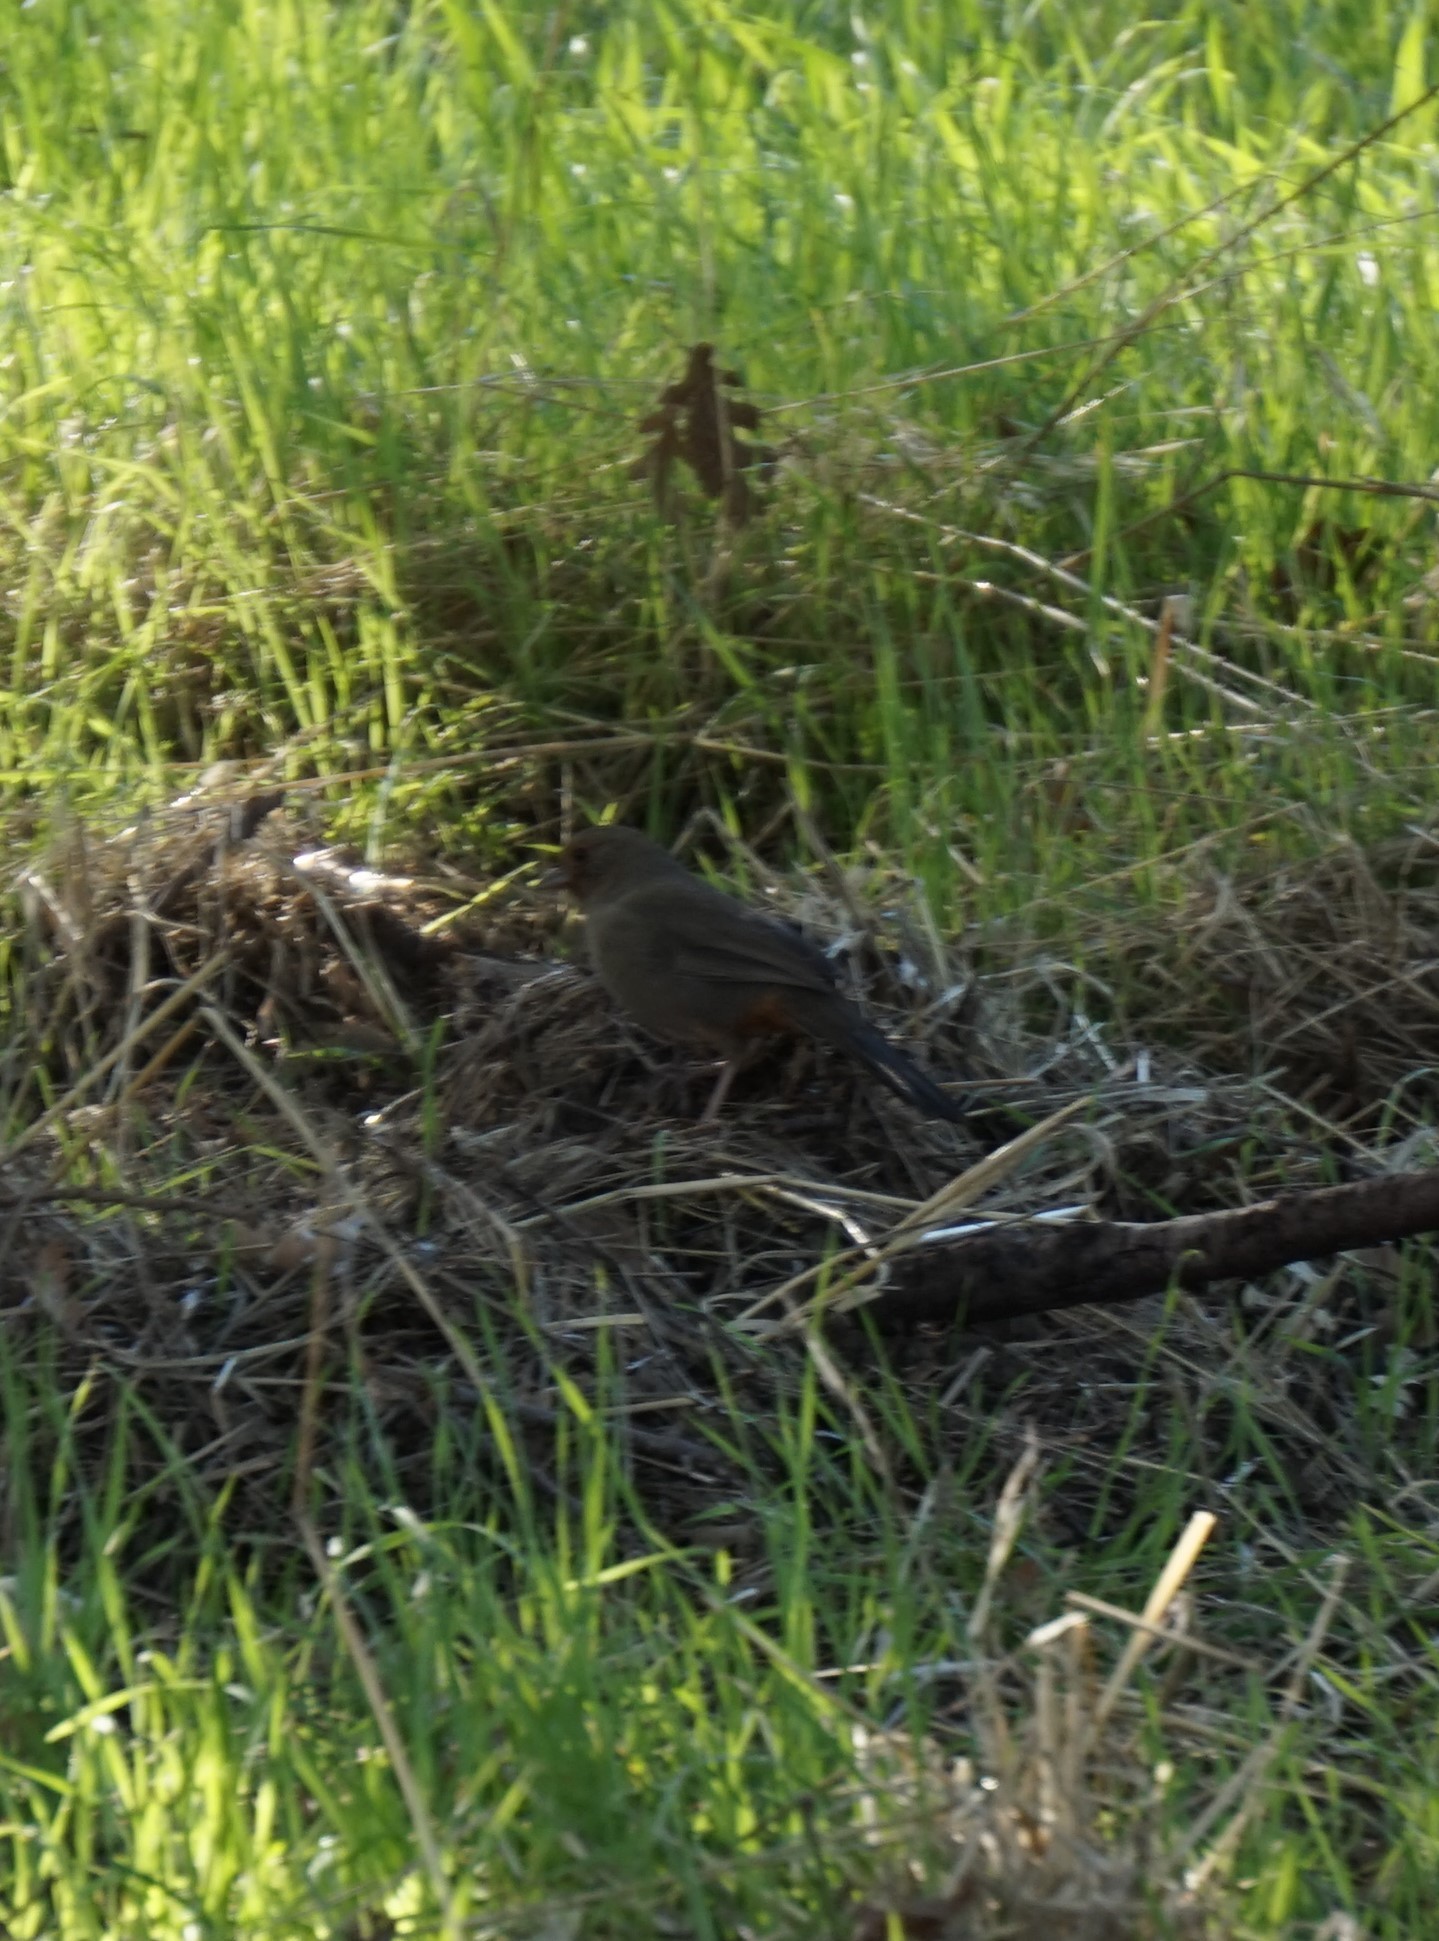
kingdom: Animalia
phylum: Chordata
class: Aves
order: Passeriformes
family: Passerellidae
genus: Melozone
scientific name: Melozone crissalis
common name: California towhee
